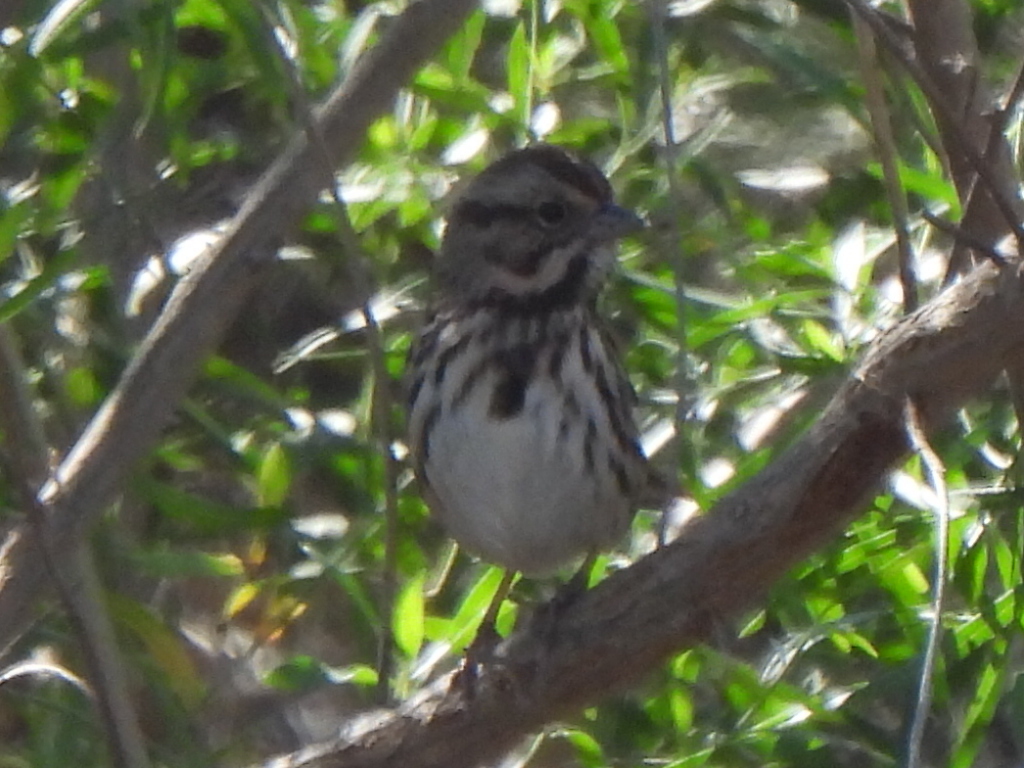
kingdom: Animalia
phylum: Chordata
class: Aves
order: Passeriformes
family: Passerellidae
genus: Melospiza
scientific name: Melospiza melodia
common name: Song sparrow
